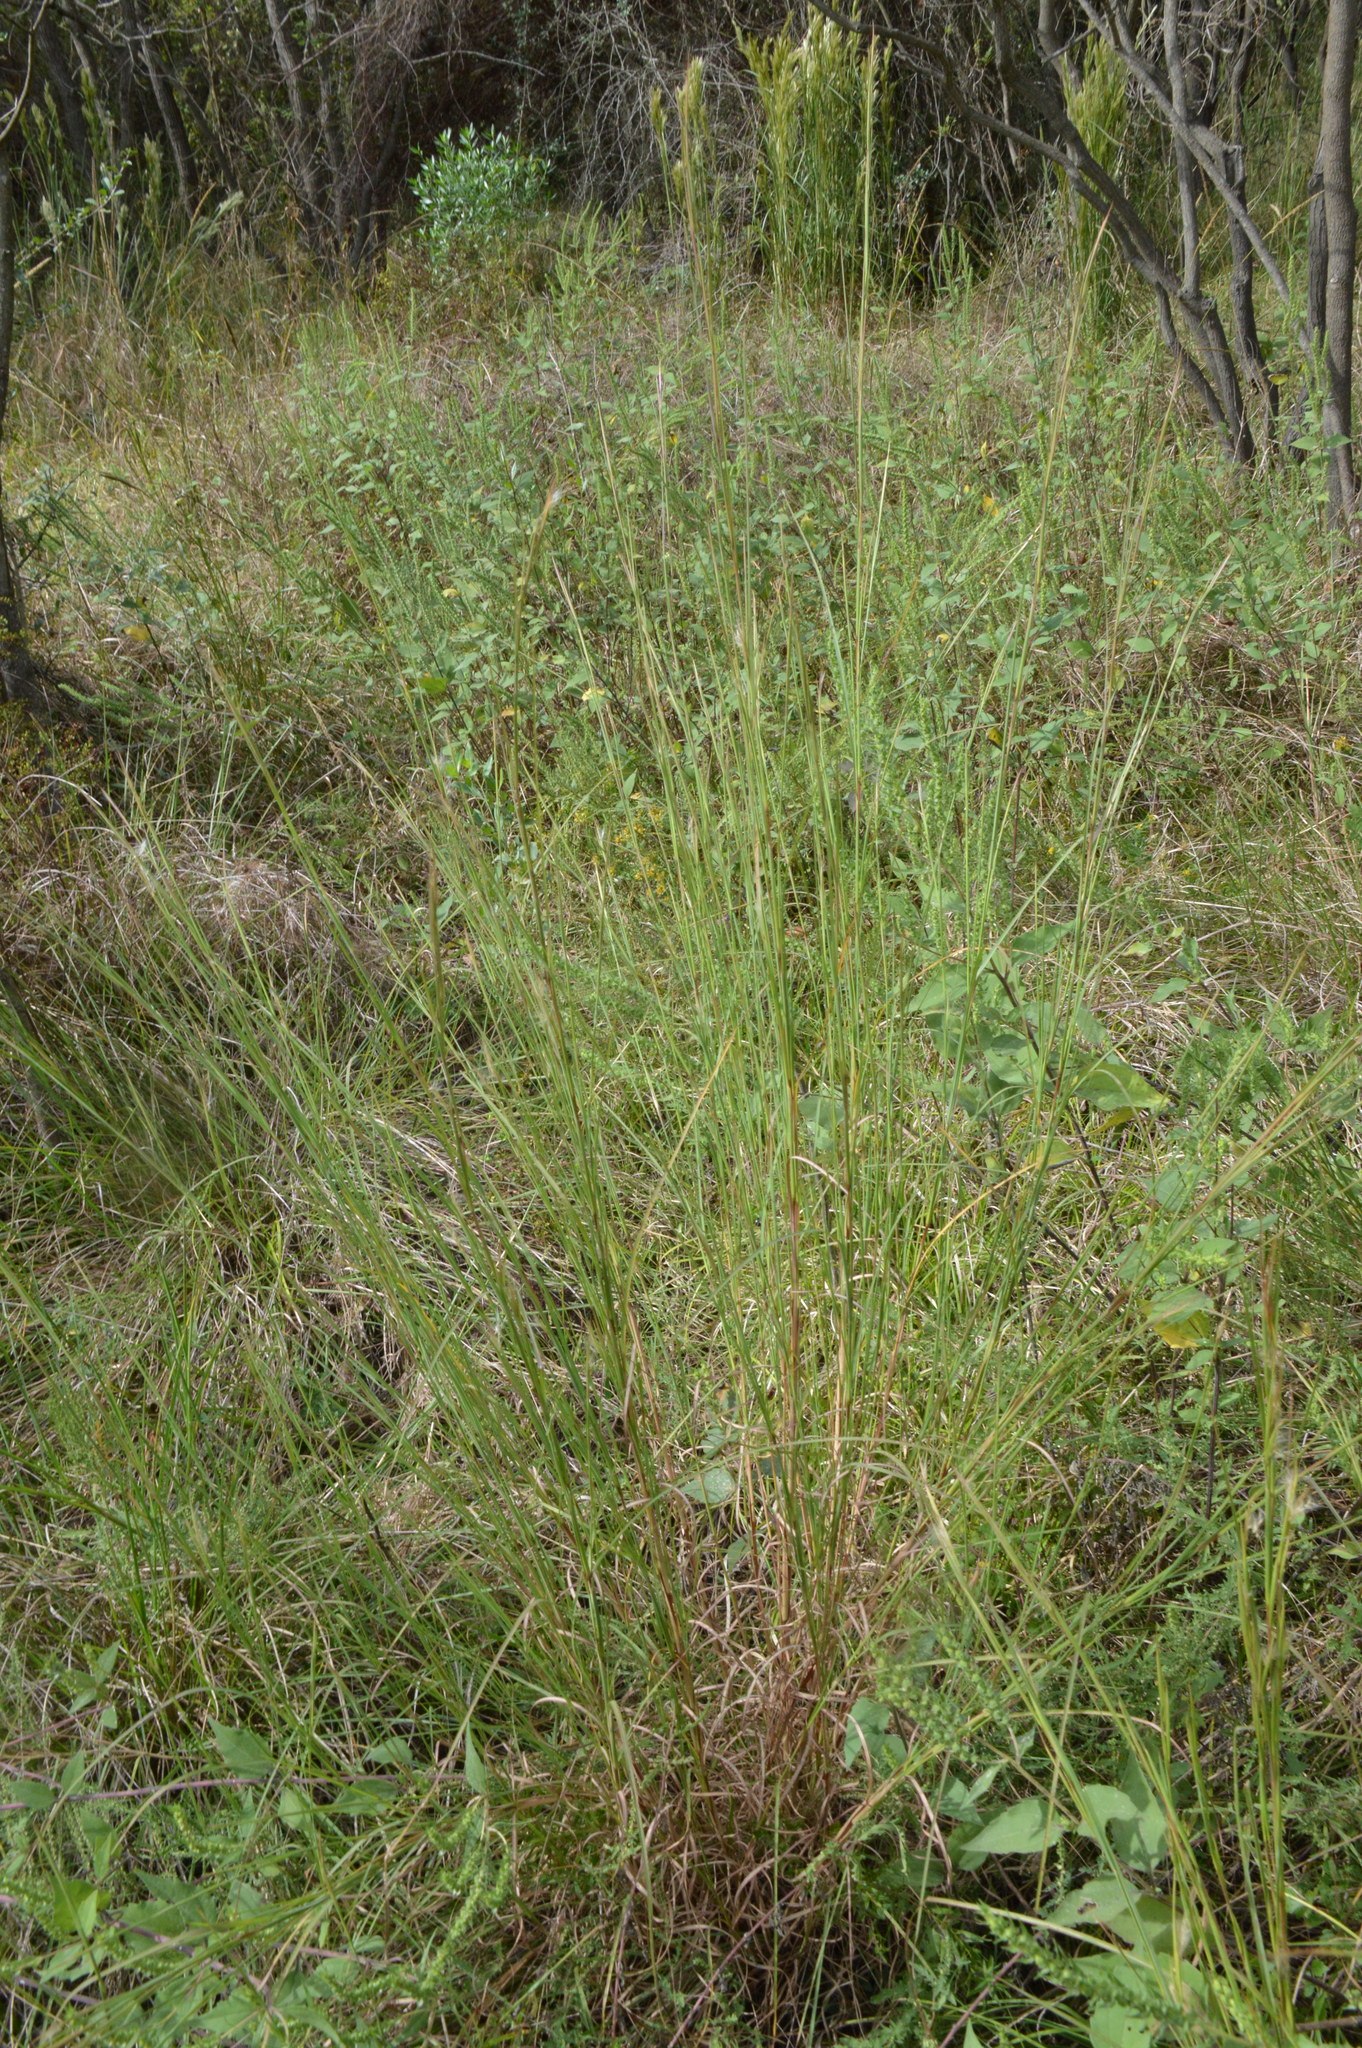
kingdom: Plantae
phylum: Tracheophyta
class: Liliopsida
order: Poales
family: Poaceae
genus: Andropogon
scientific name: Andropogon virginicus
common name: Broomsedge bluestem
